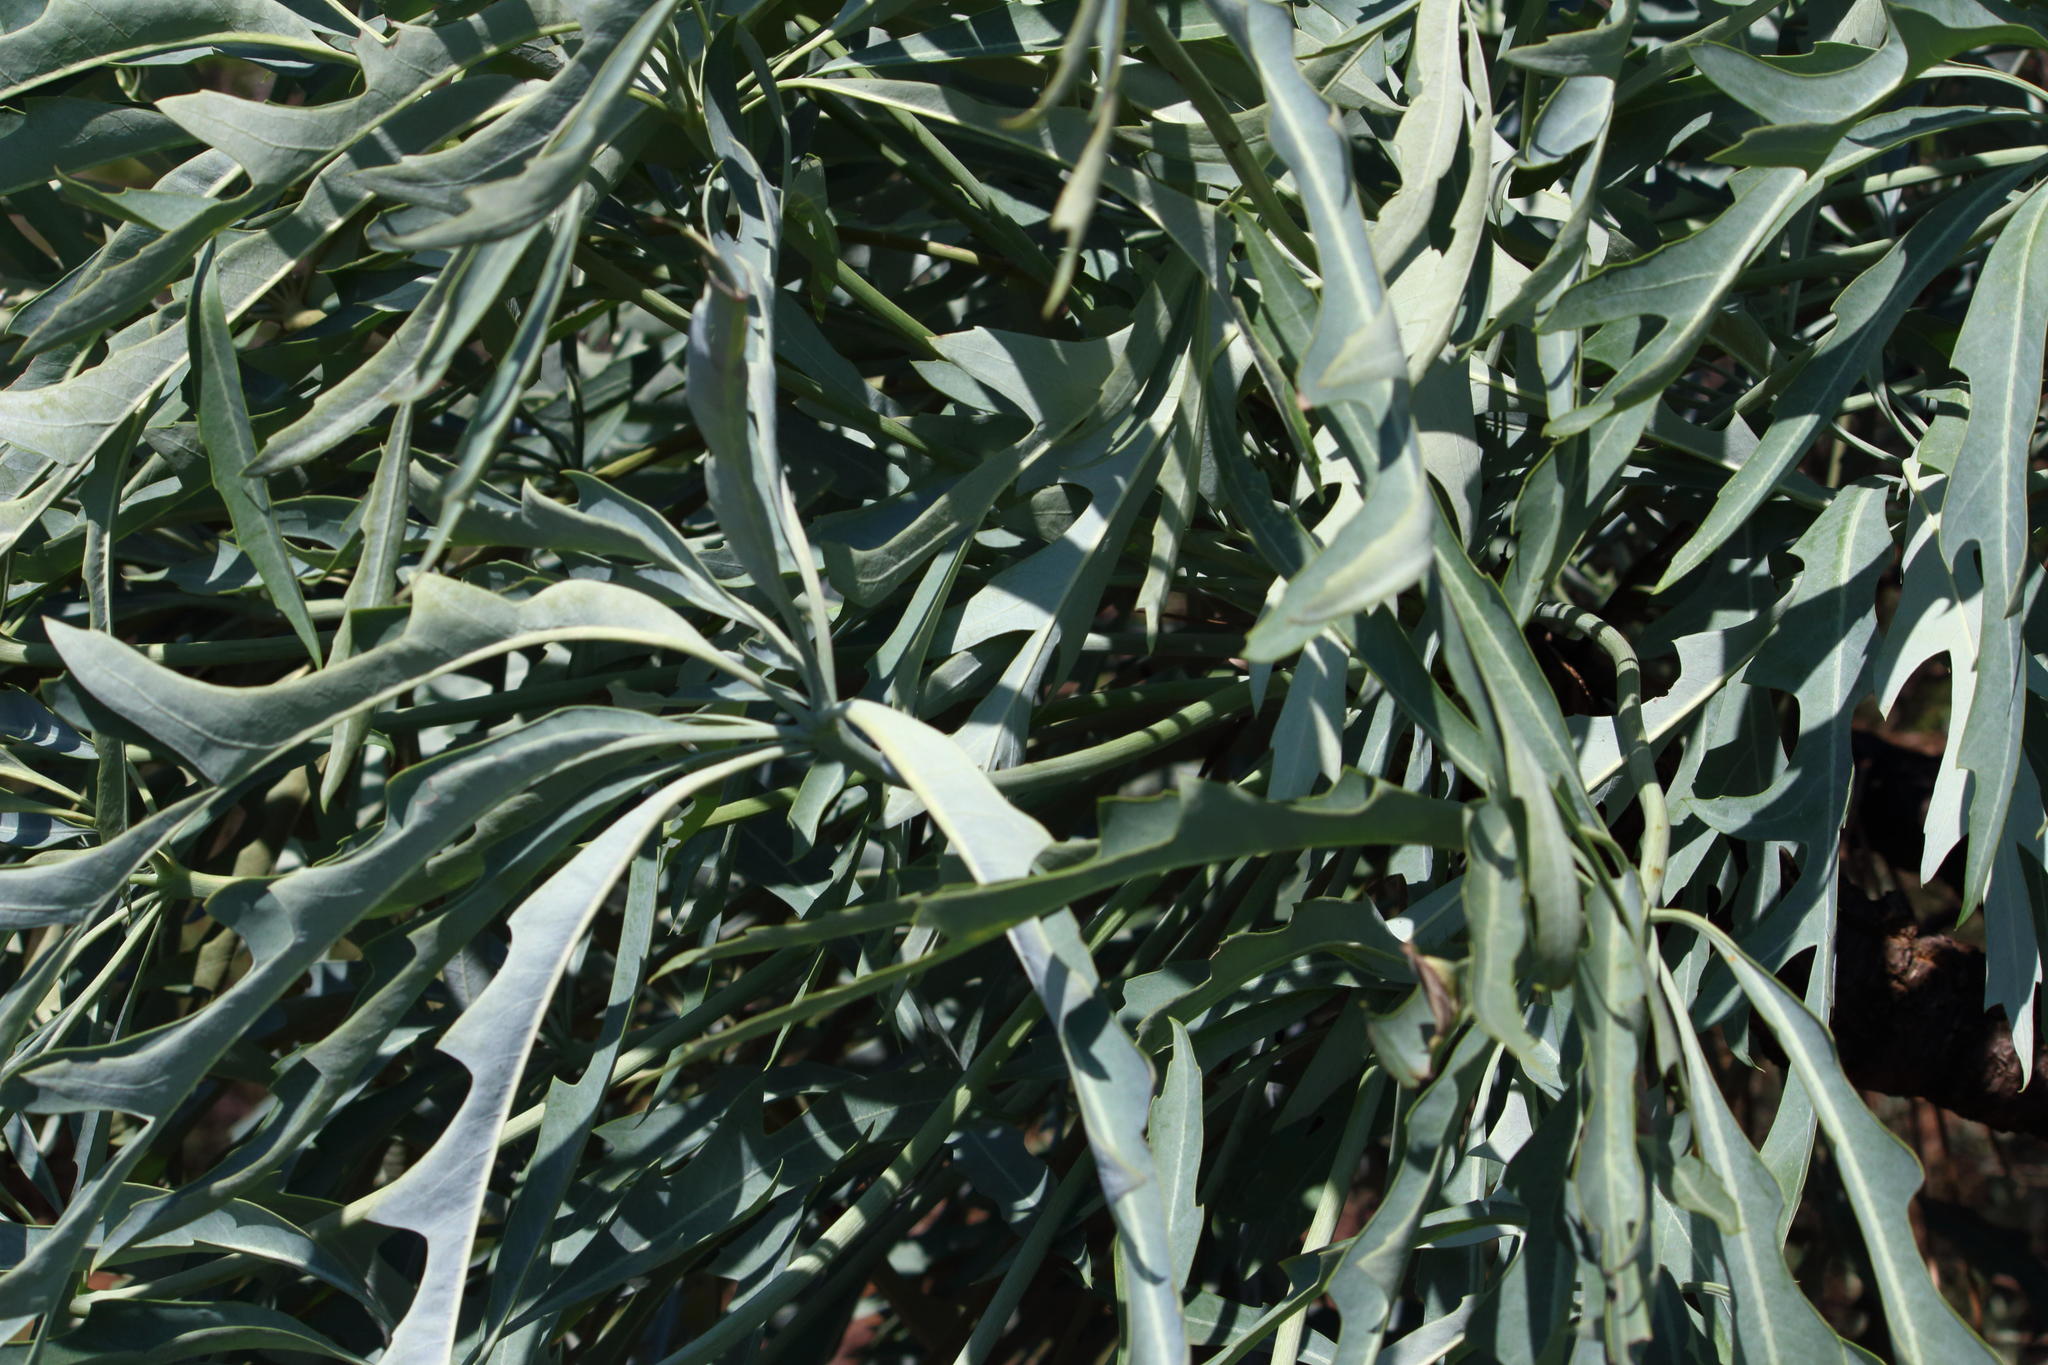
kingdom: Plantae
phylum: Tracheophyta
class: Magnoliopsida
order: Apiales
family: Araliaceae
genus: Cussonia
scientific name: Cussonia paniculata
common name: Cabbagetree
